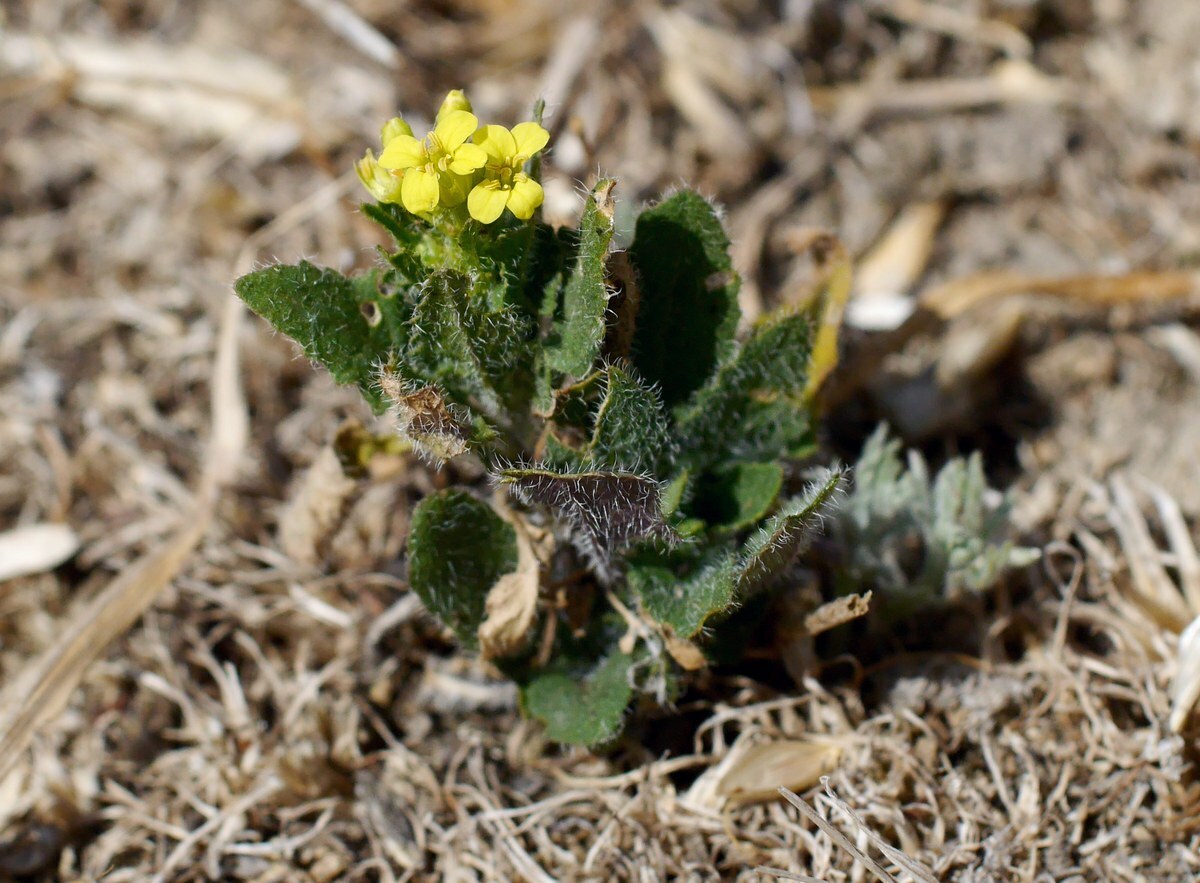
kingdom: Plantae
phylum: Tracheophyta
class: Magnoliopsida
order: Brassicales
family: Brassicaceae
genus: Sisymbrium
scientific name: Sisymbrium loeselii
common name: False london-rocket
